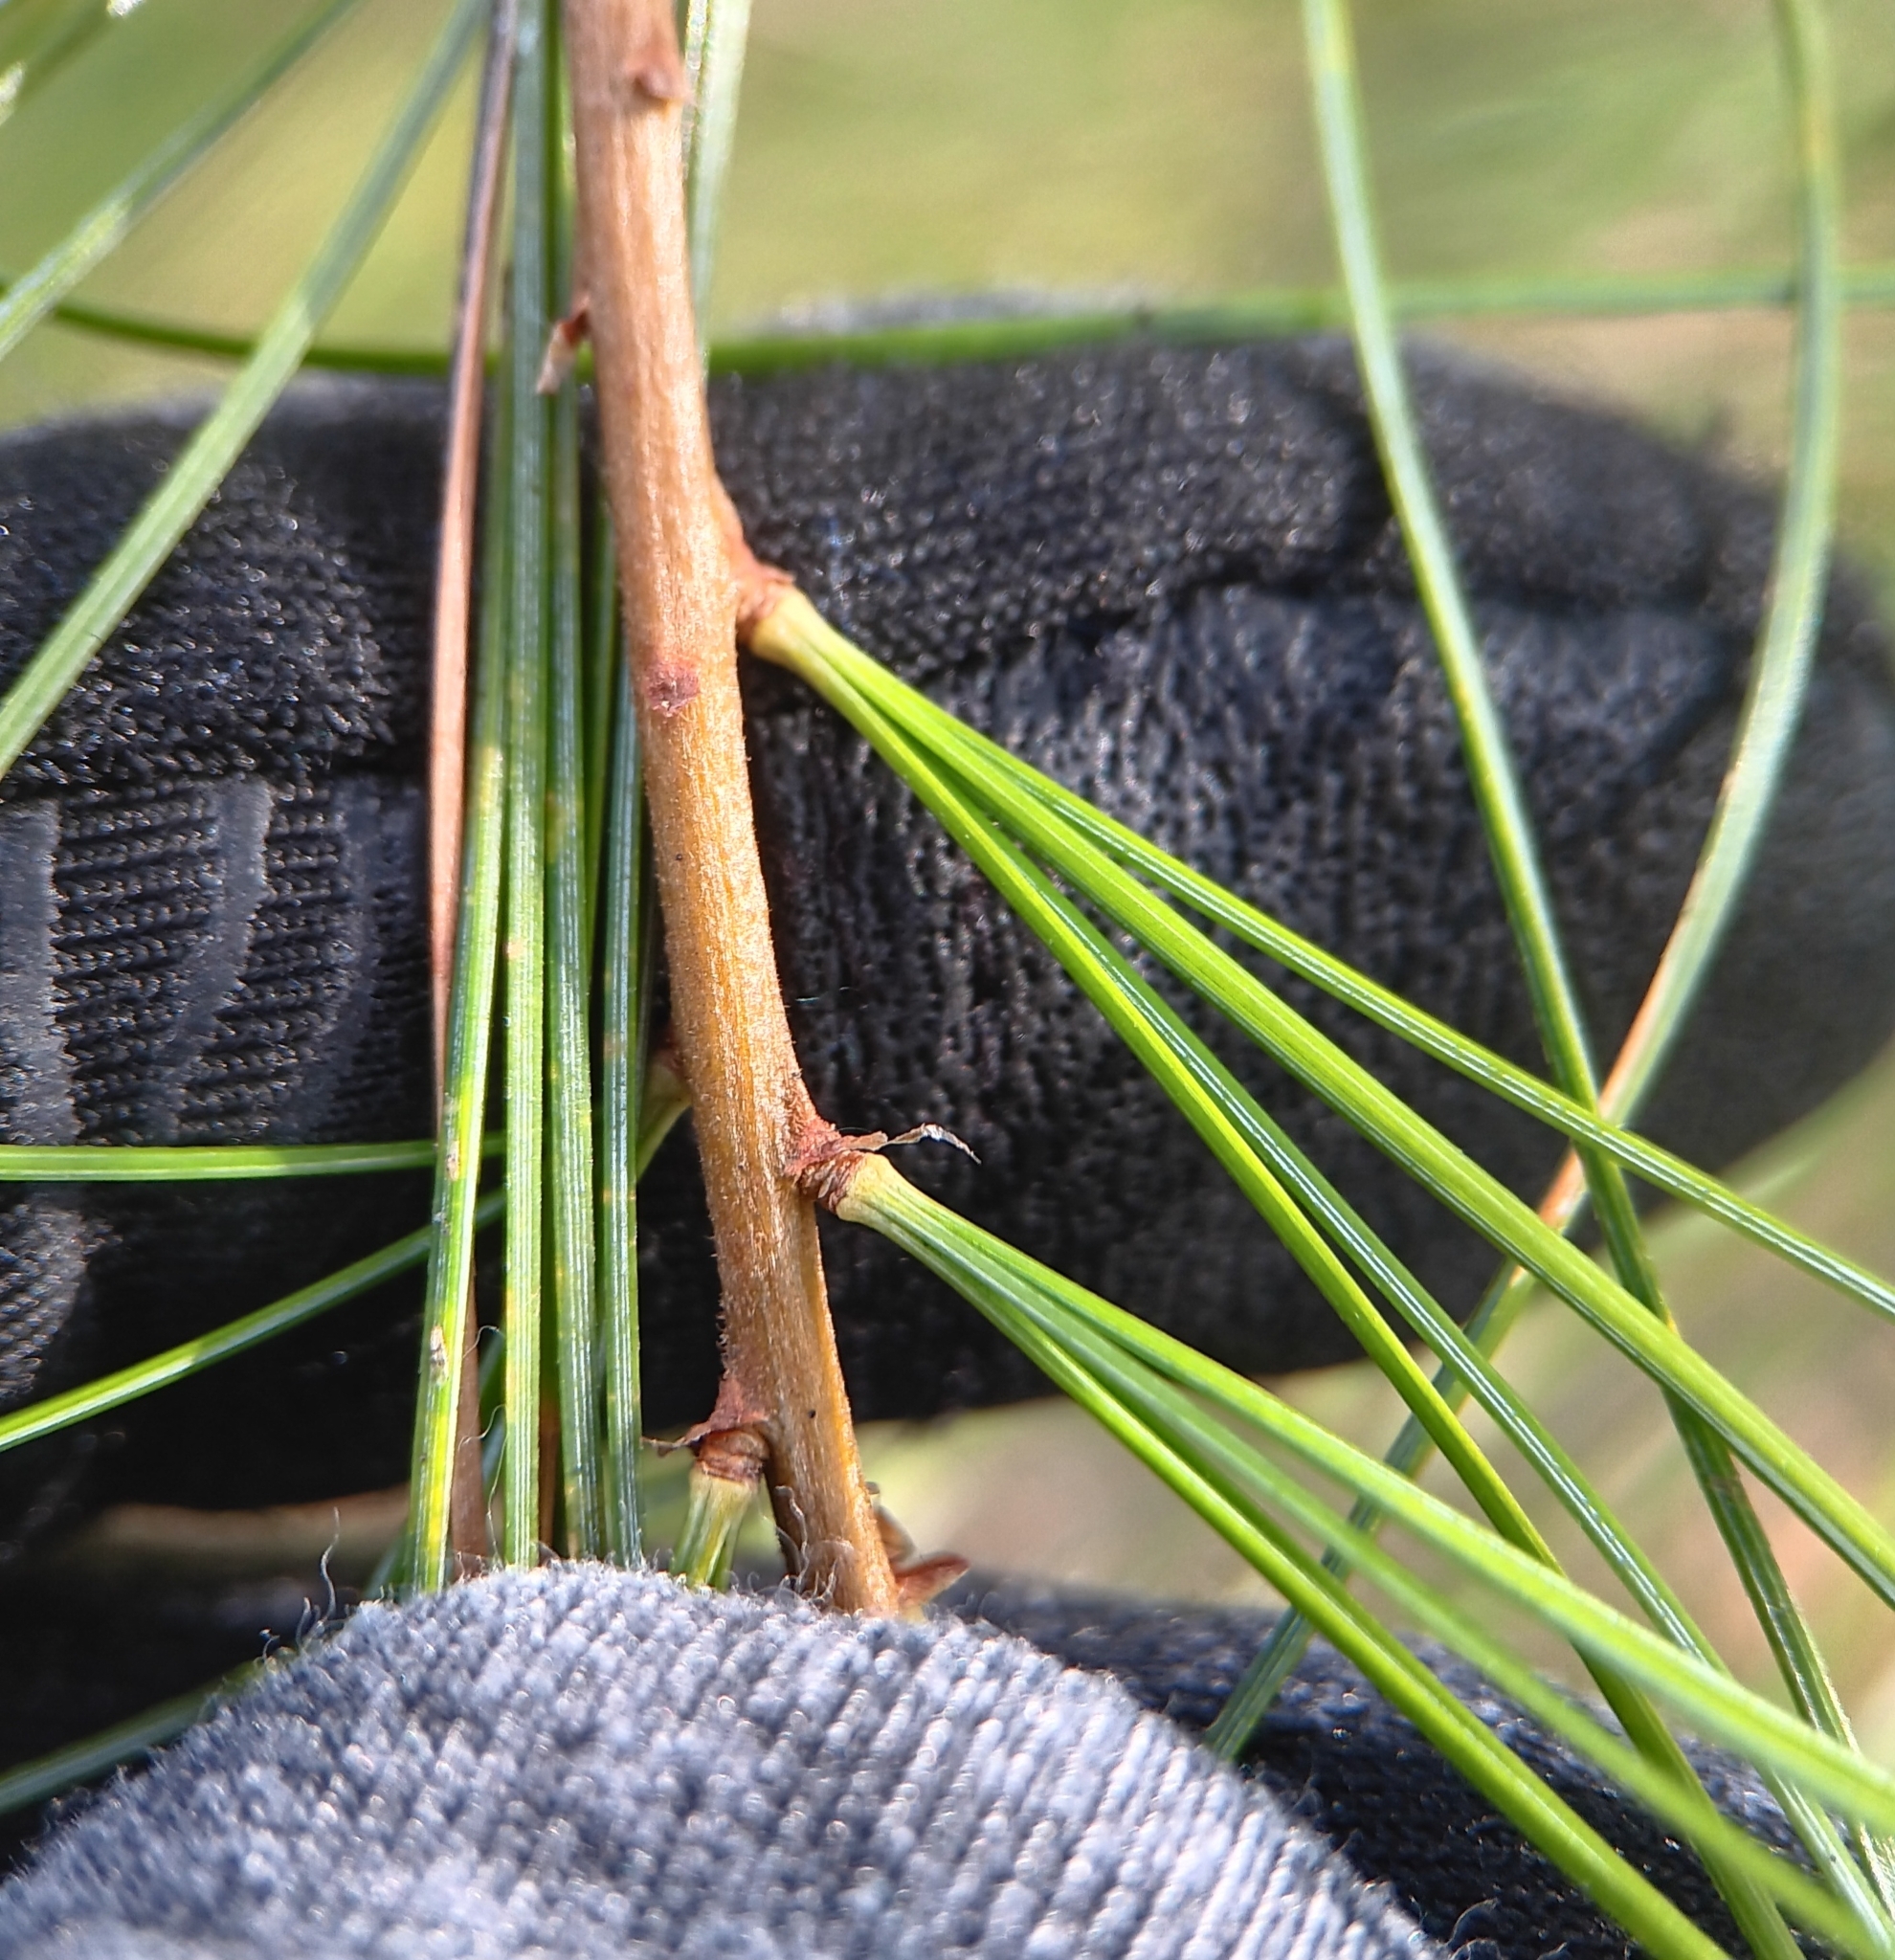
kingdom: Plantae
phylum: Tracheophyta
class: Pinopsida
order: Pinales
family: Pinaceae
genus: Pinus
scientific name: Pinus strobus
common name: Weymouth pine
